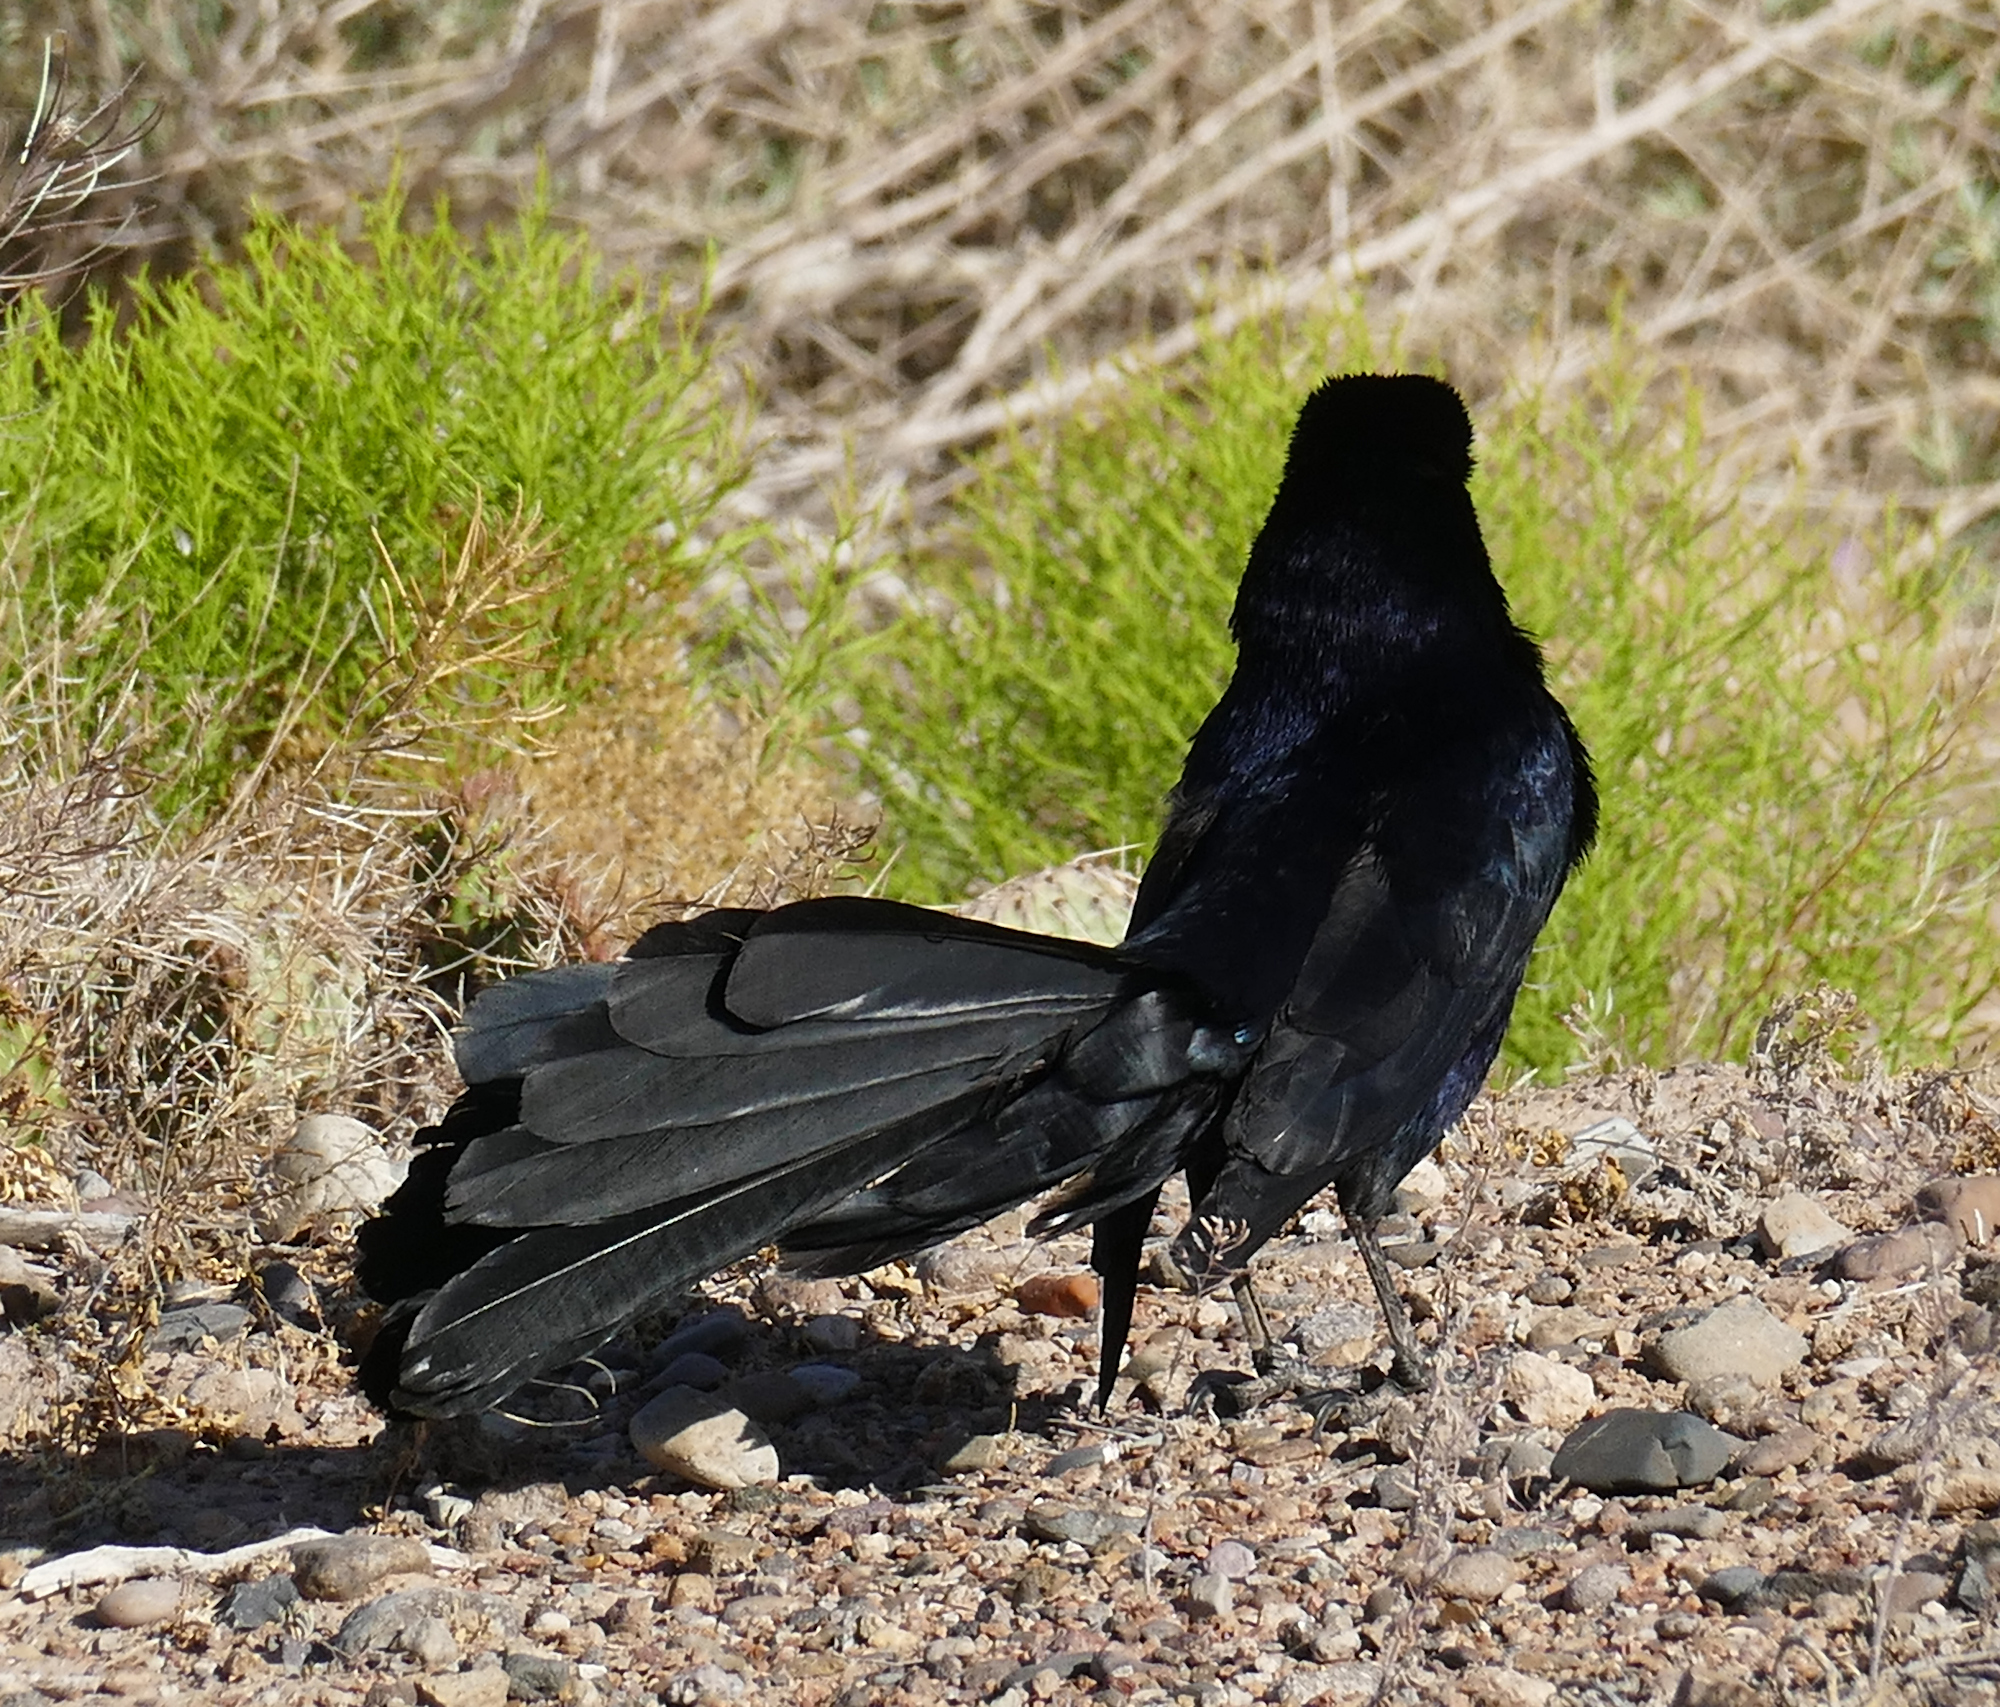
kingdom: Animalia
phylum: Chordata
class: Aves
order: Passeriformes
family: Icteridae
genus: Quiscalus
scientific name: Quiscalus mexicanus
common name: Great-tailed grackle
